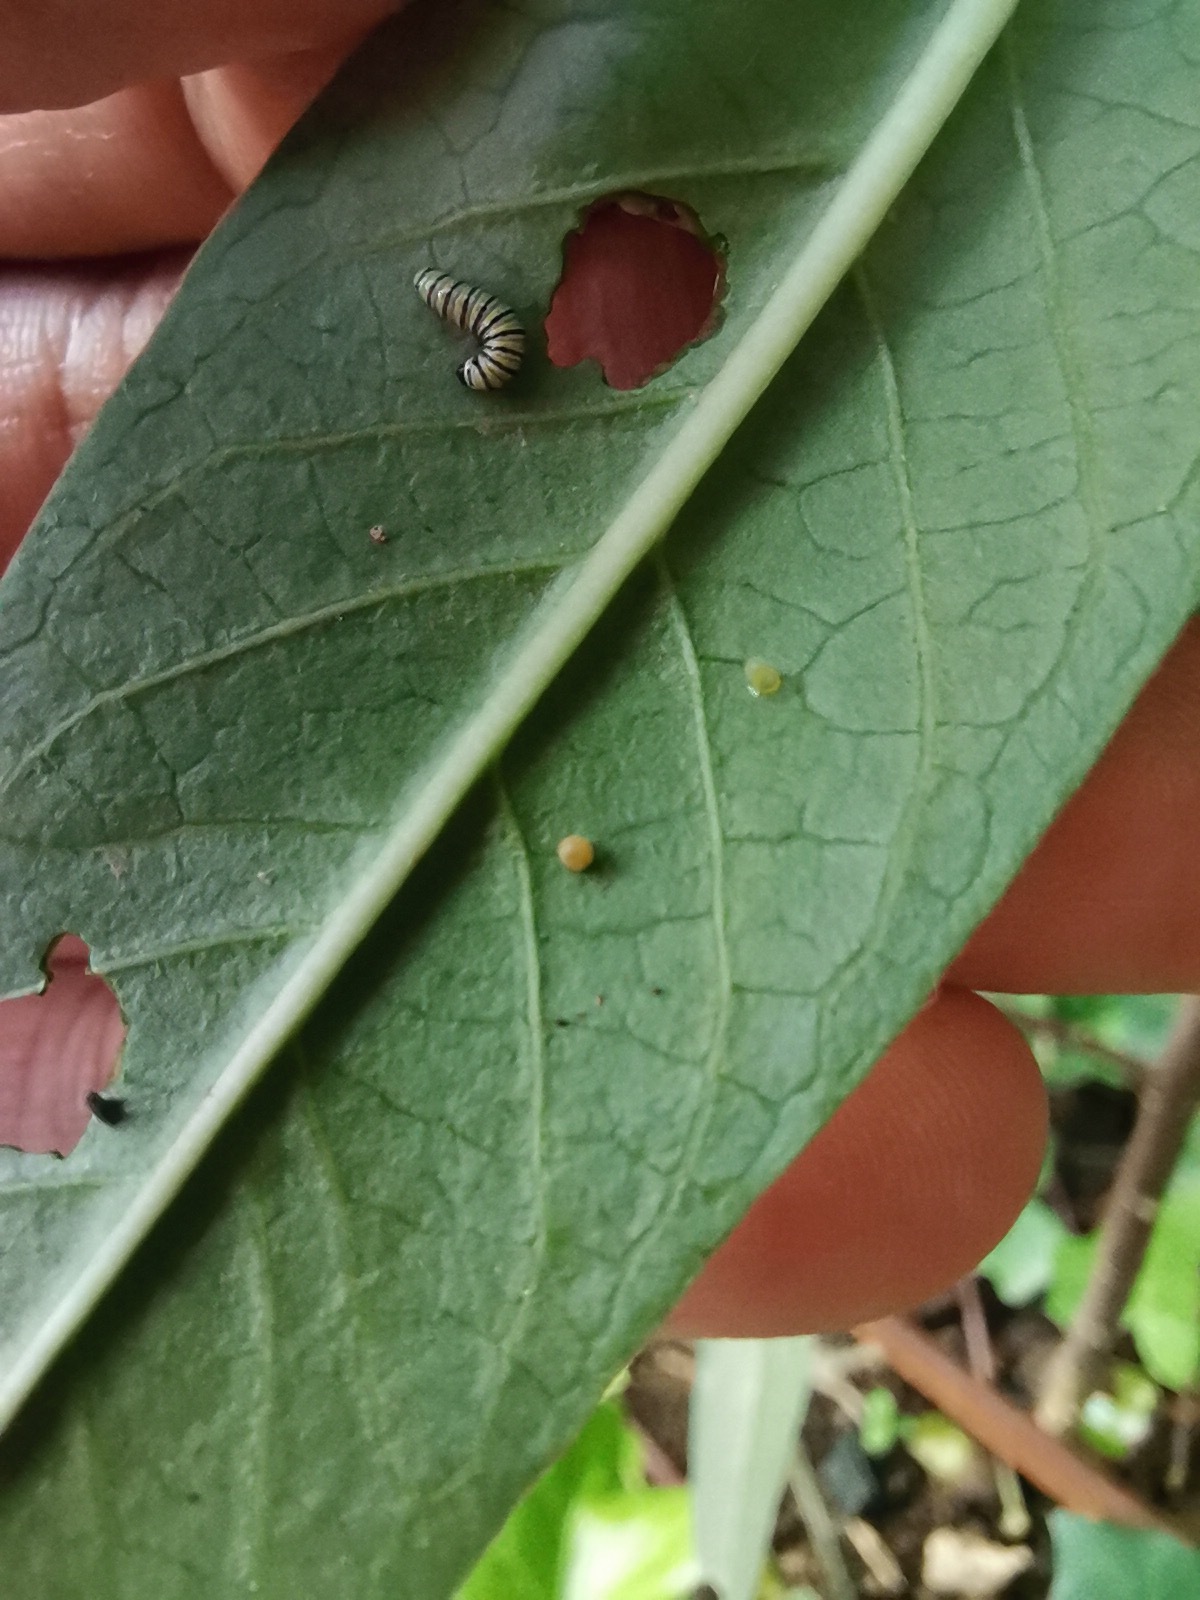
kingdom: Animalia
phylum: Arthropoda
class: Insecta
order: Lepidoptera
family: Nymphalidae
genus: Danaus
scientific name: Danaus plexippus
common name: Monarch
